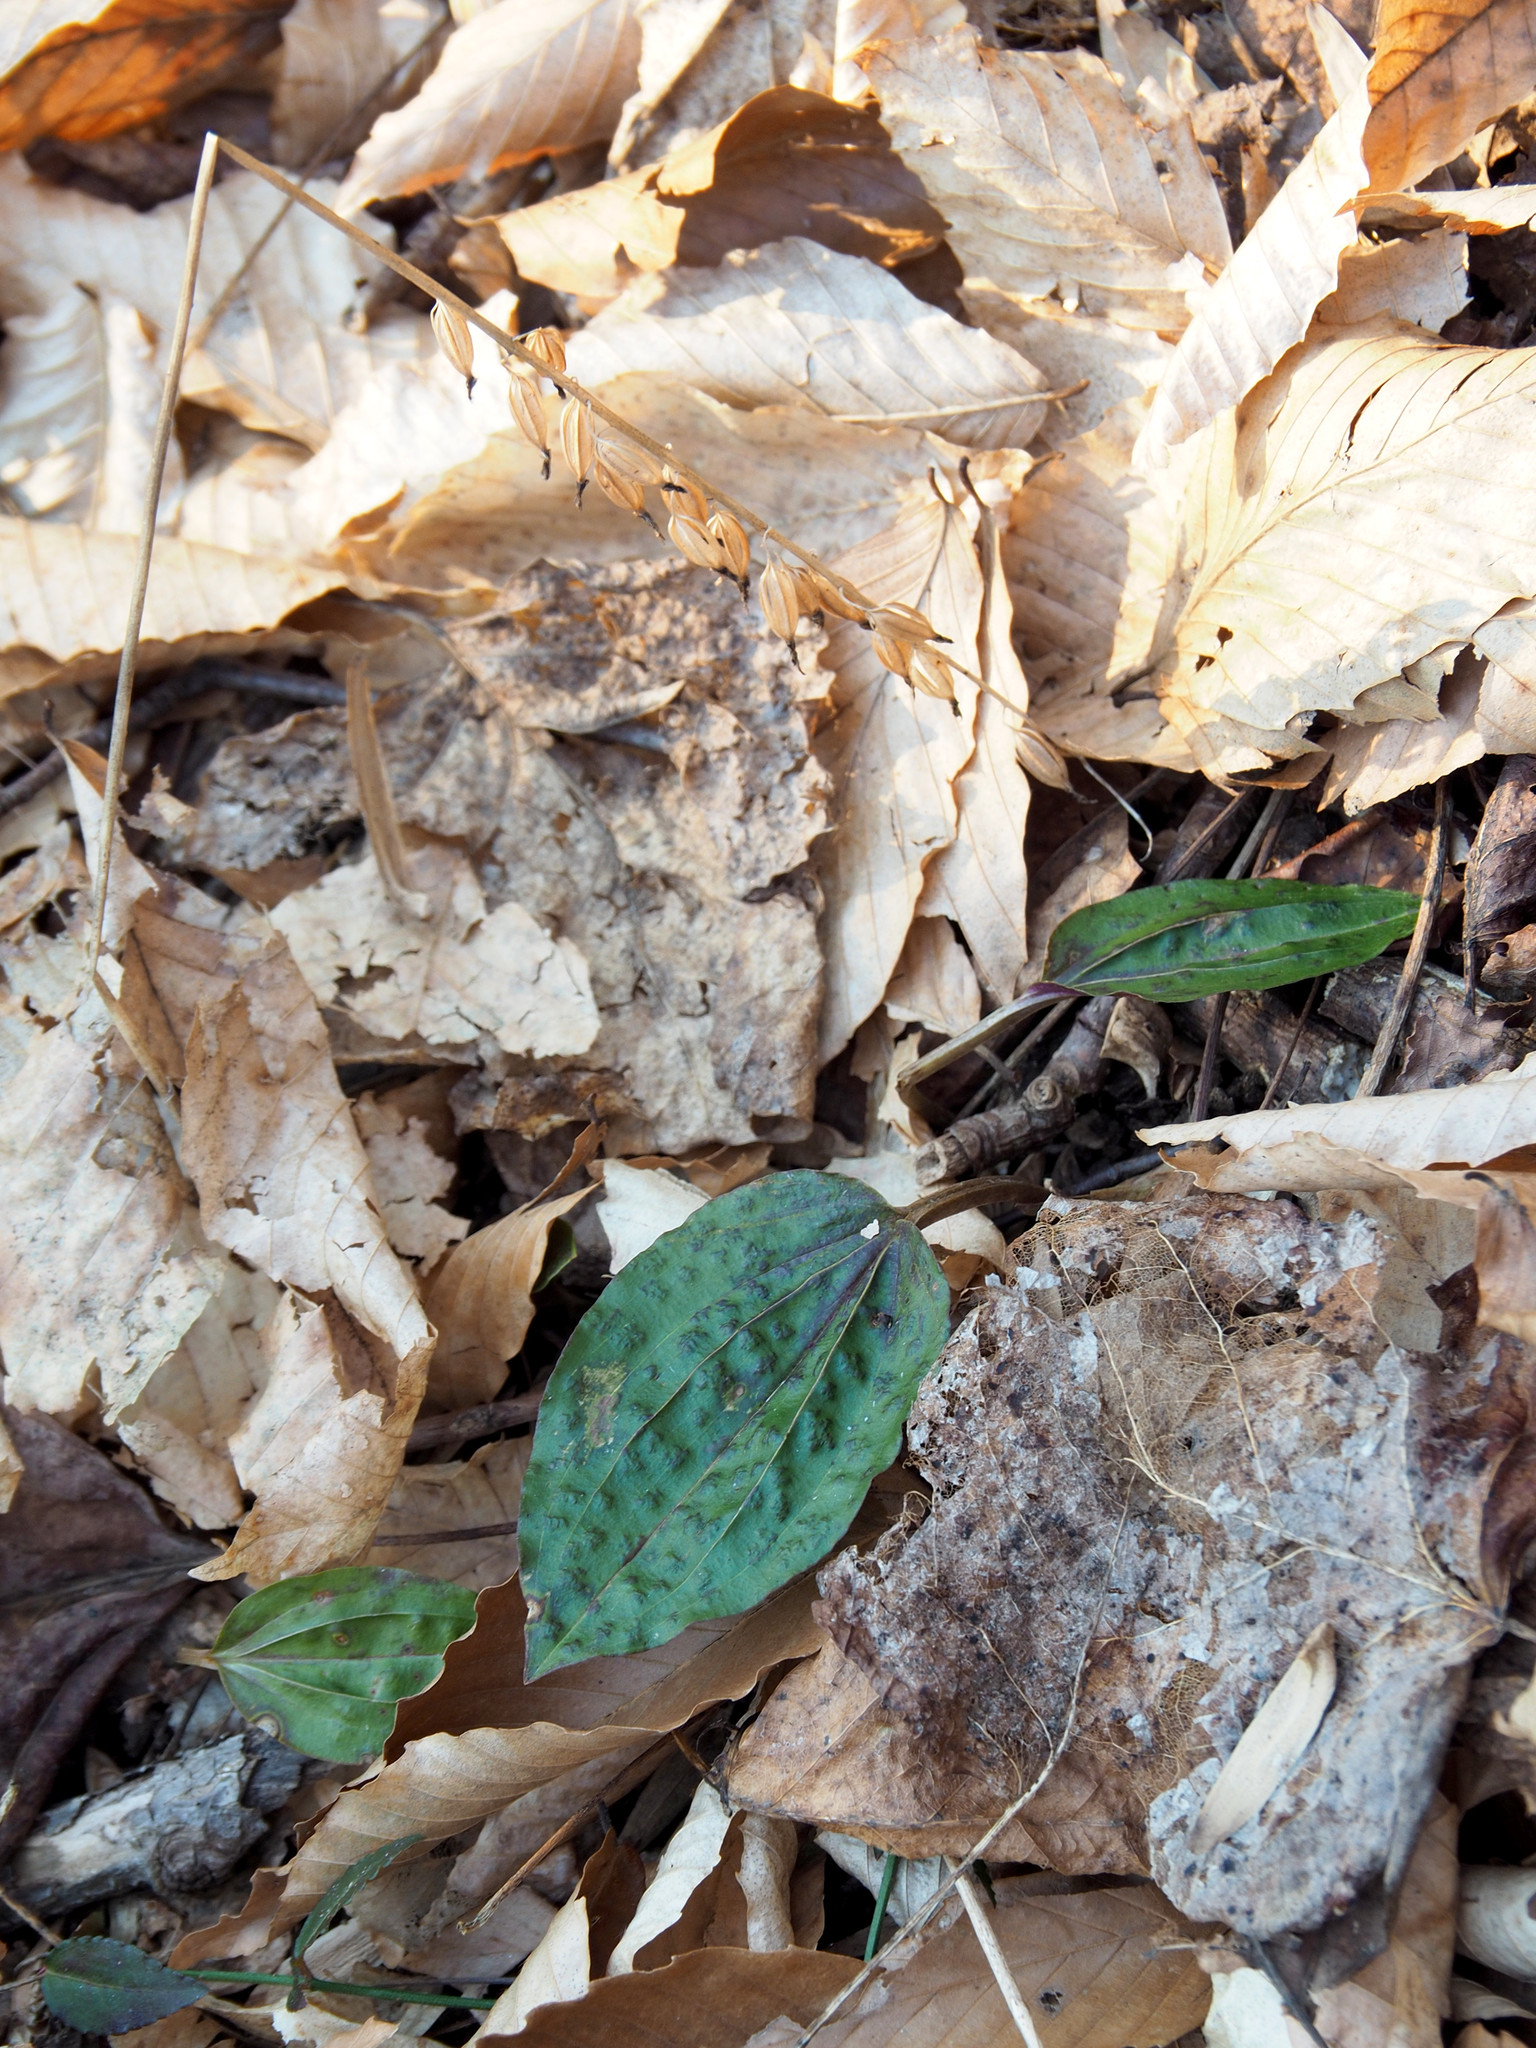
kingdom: Plantae
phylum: Tracheophyta
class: Liliopsida
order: Asparagales
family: Orchidaceae
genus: Tipularia
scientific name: Tipularia discolor
